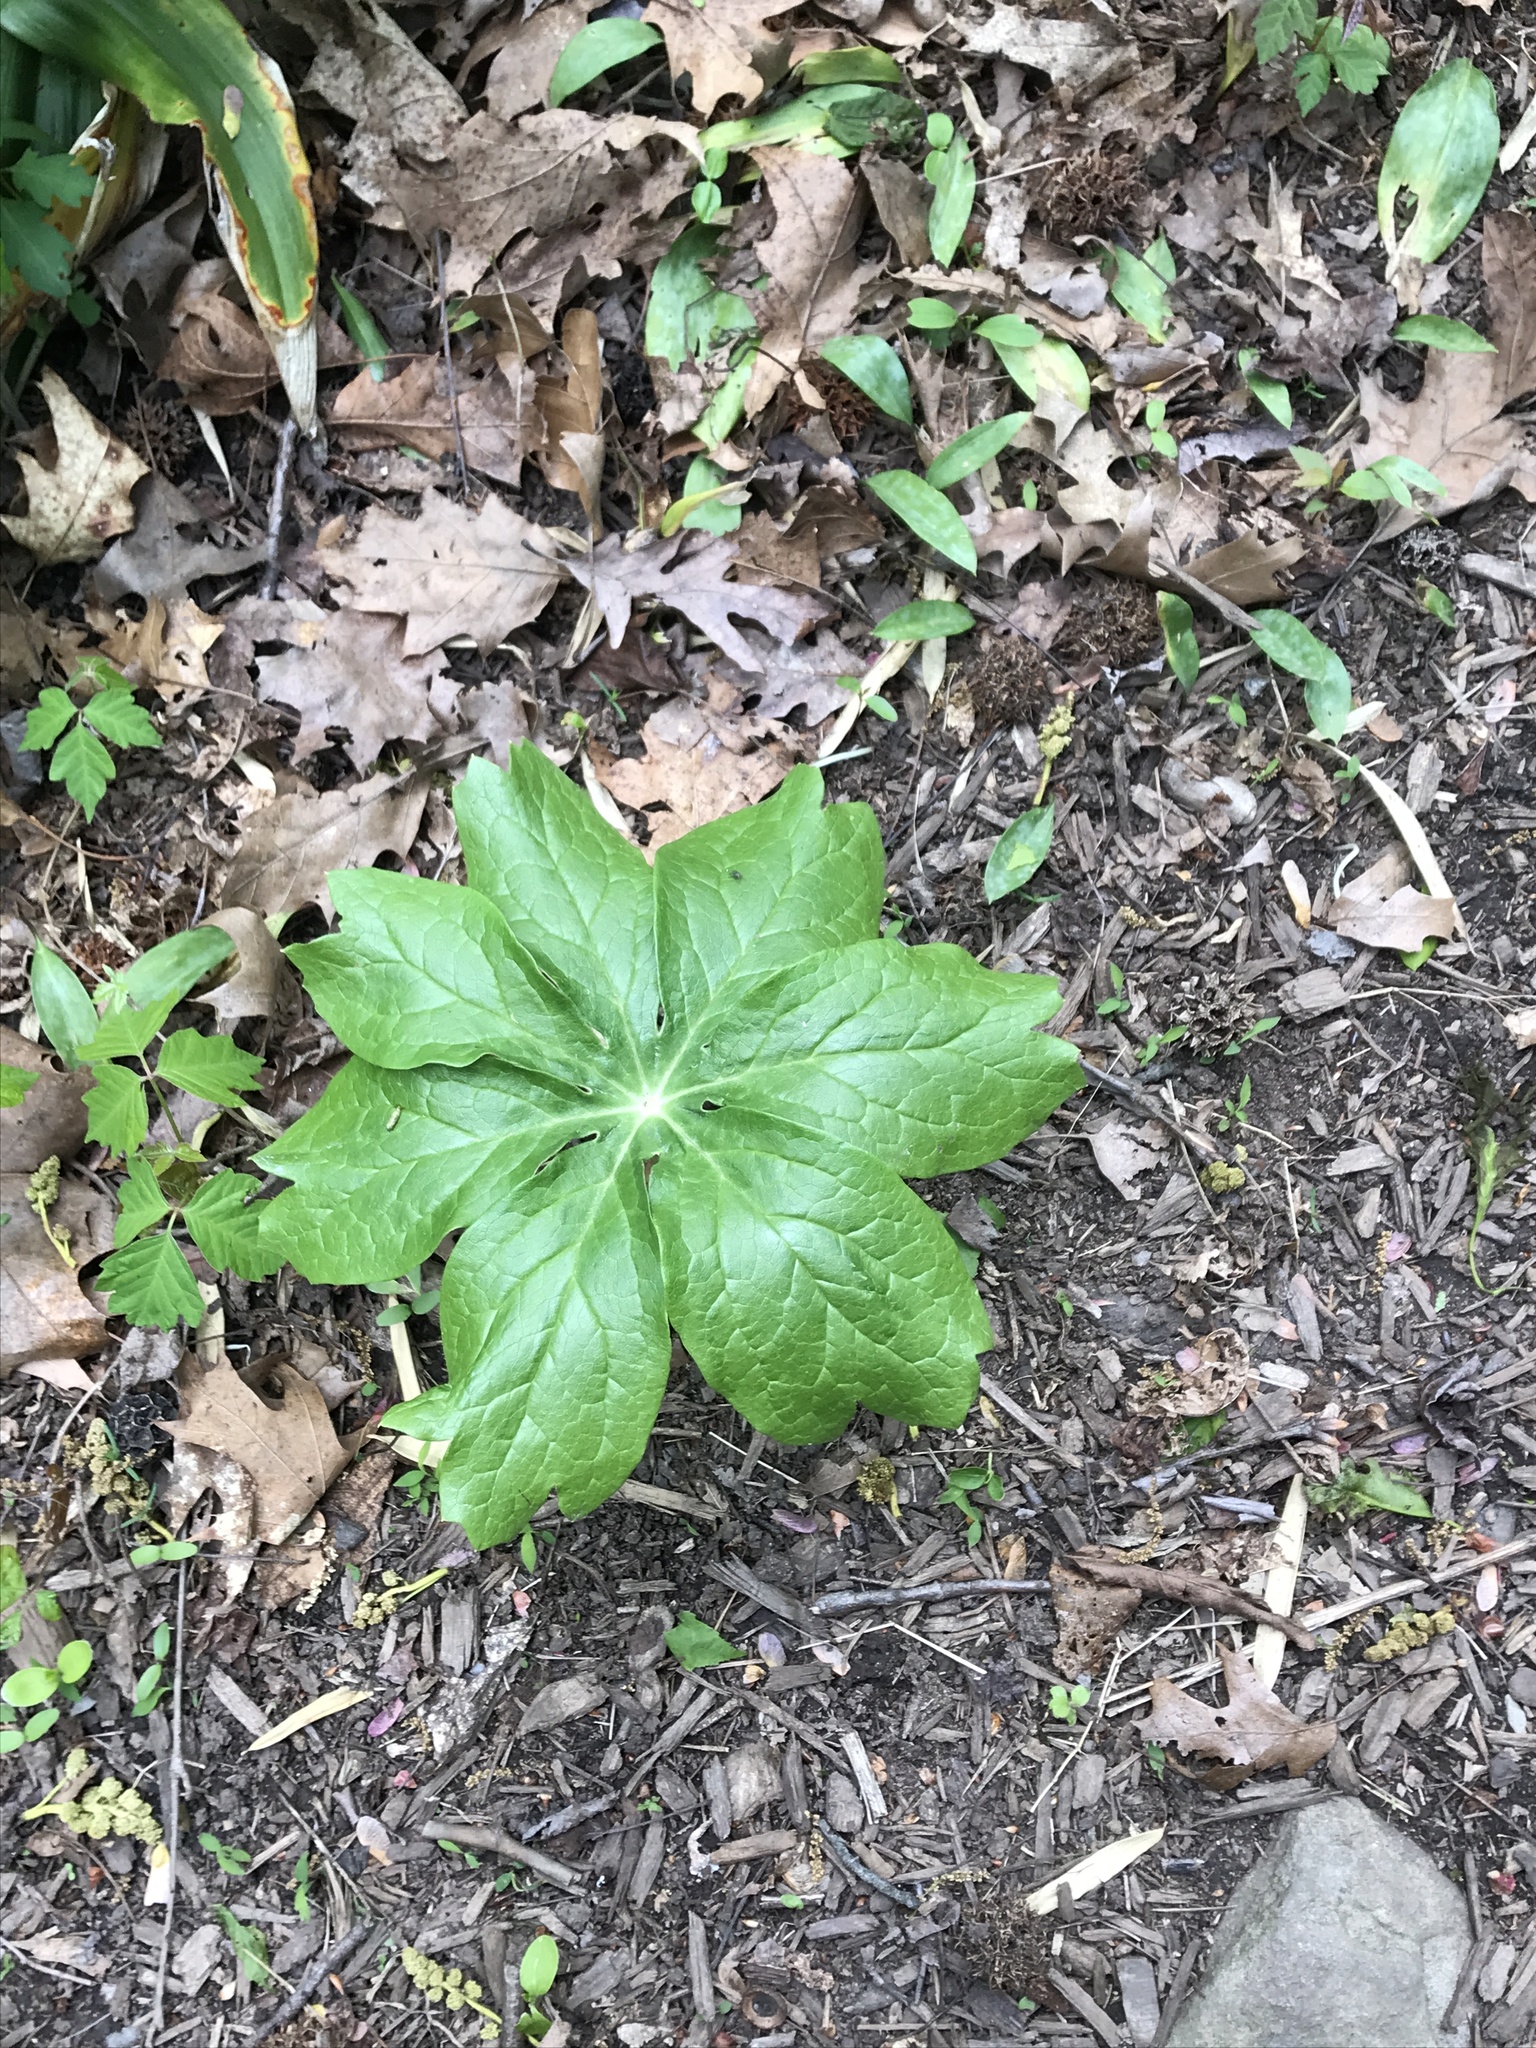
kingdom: Plantae
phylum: Tracheophyta
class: Magnoliopsida
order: Ranunculales
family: Berberidaceae
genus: Podophyllum
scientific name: Podophyllum peltatum
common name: Wild mandrake
